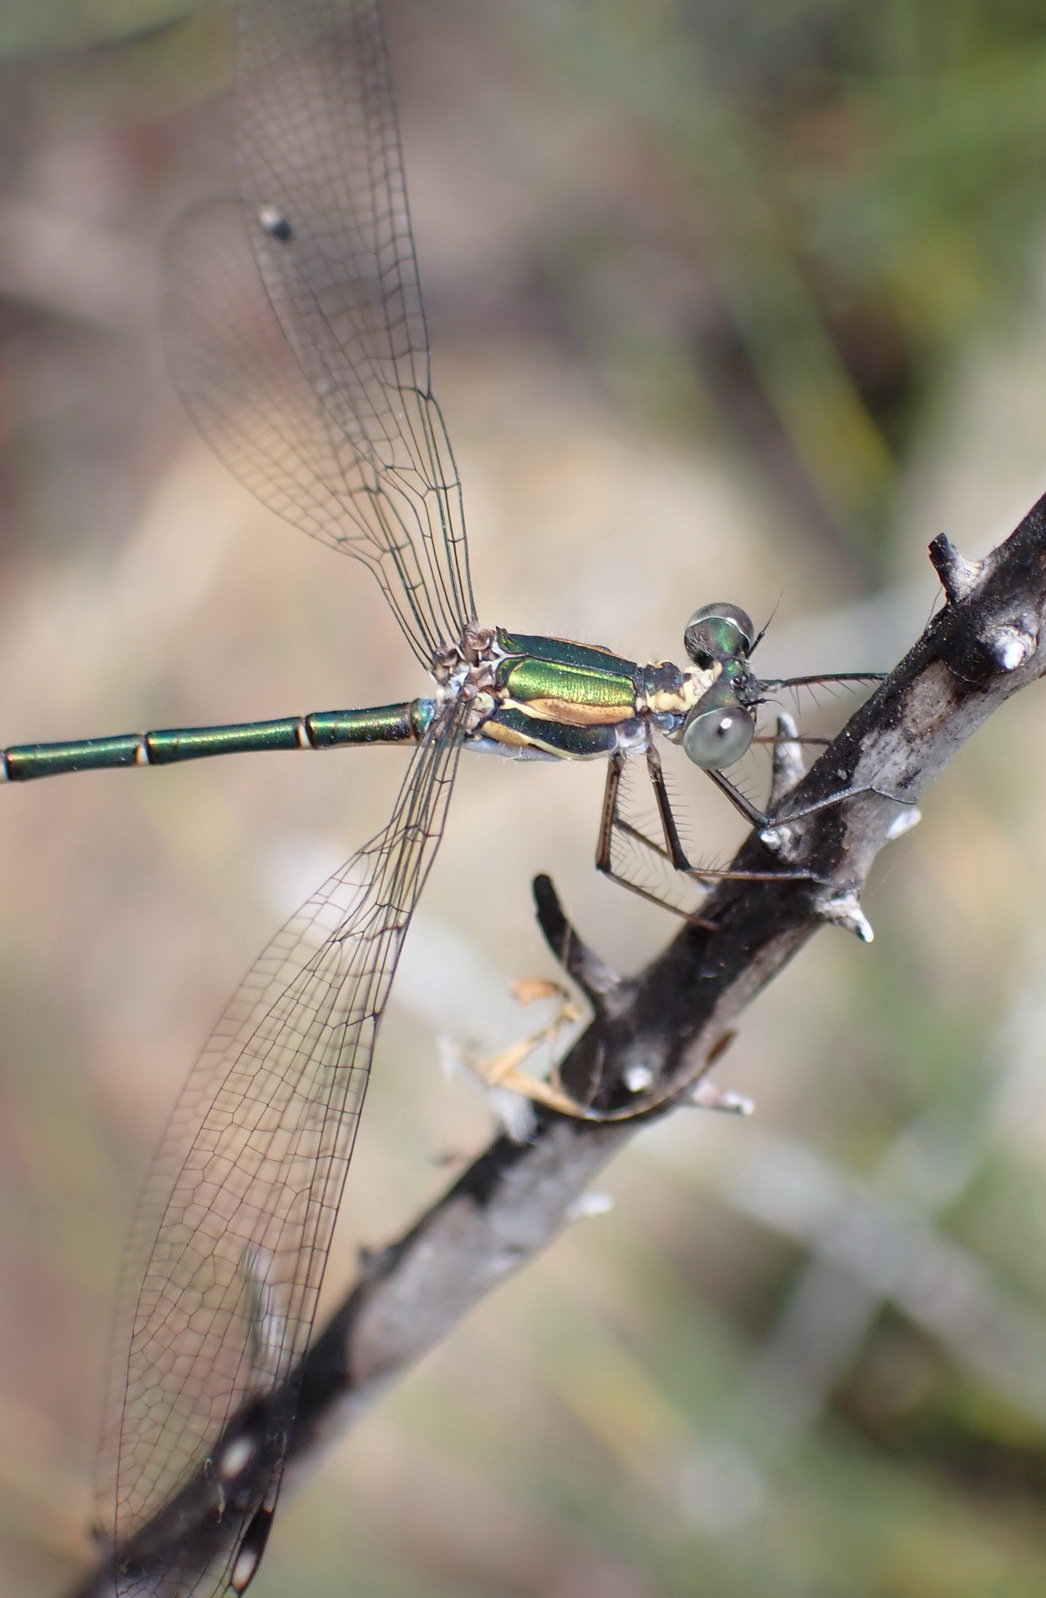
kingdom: Animalia
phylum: Arthropoda
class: Insecta
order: Odonata
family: Synlestidae
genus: Chlorolestes
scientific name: Chlorolestes tessellatus
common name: Forest malachite
